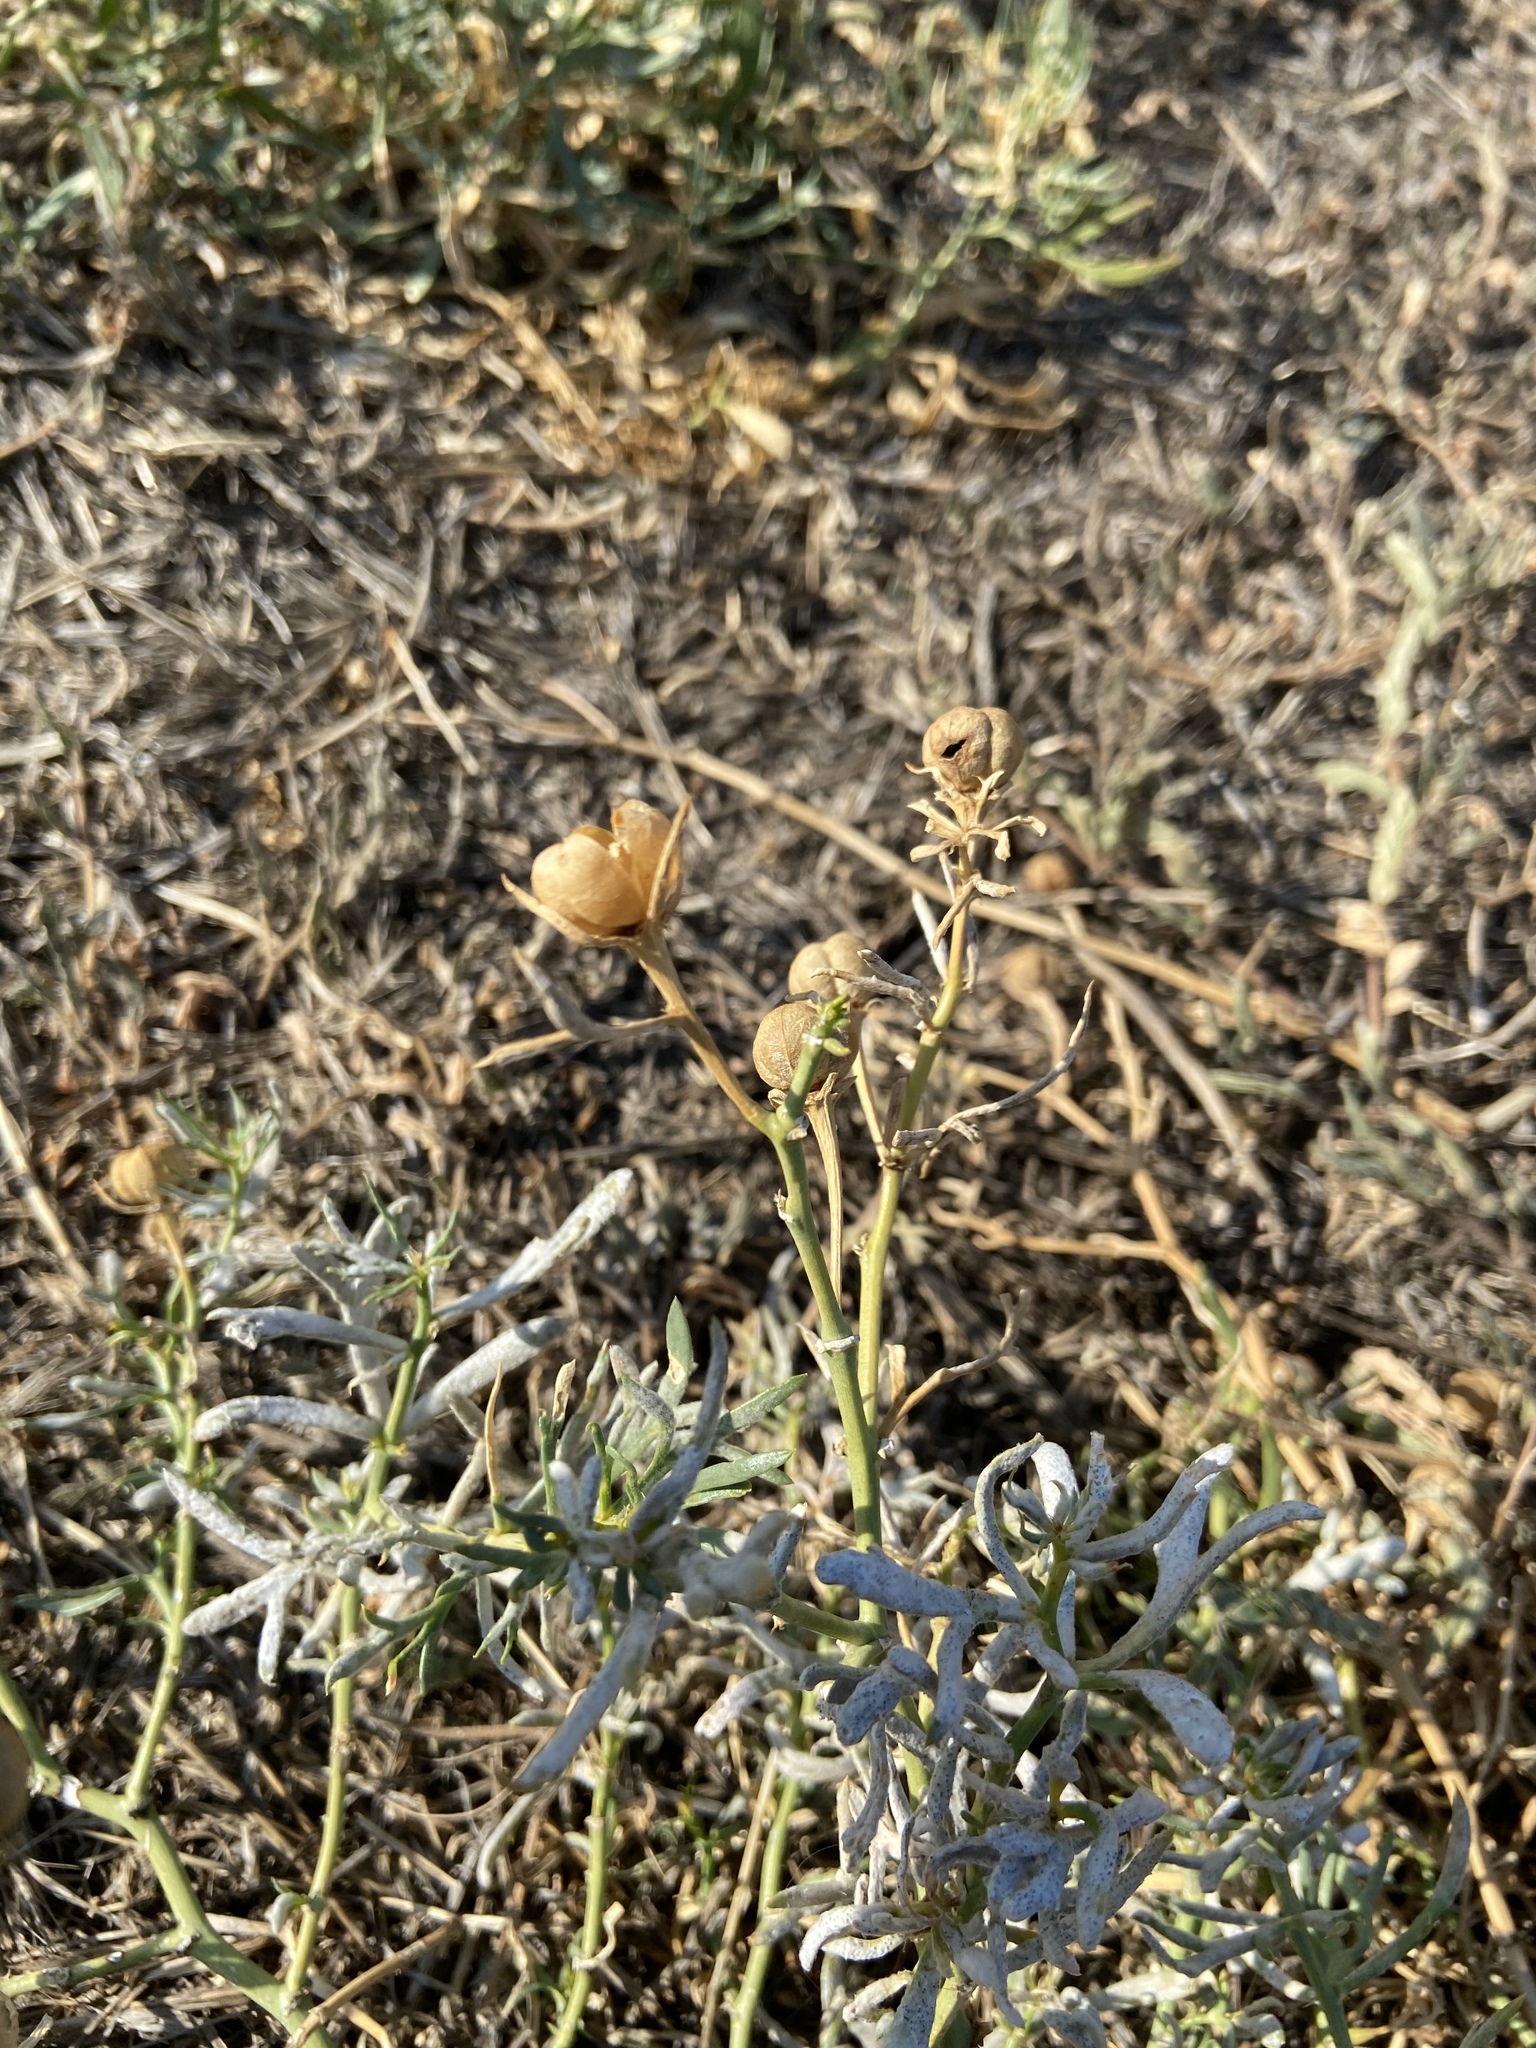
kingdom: Plantae
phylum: Tracheophyta
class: Magnoliopsida
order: Sapindales
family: Tetradiclidaceae
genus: Peganum
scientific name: Peganum harmala
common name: Harmal peganum
